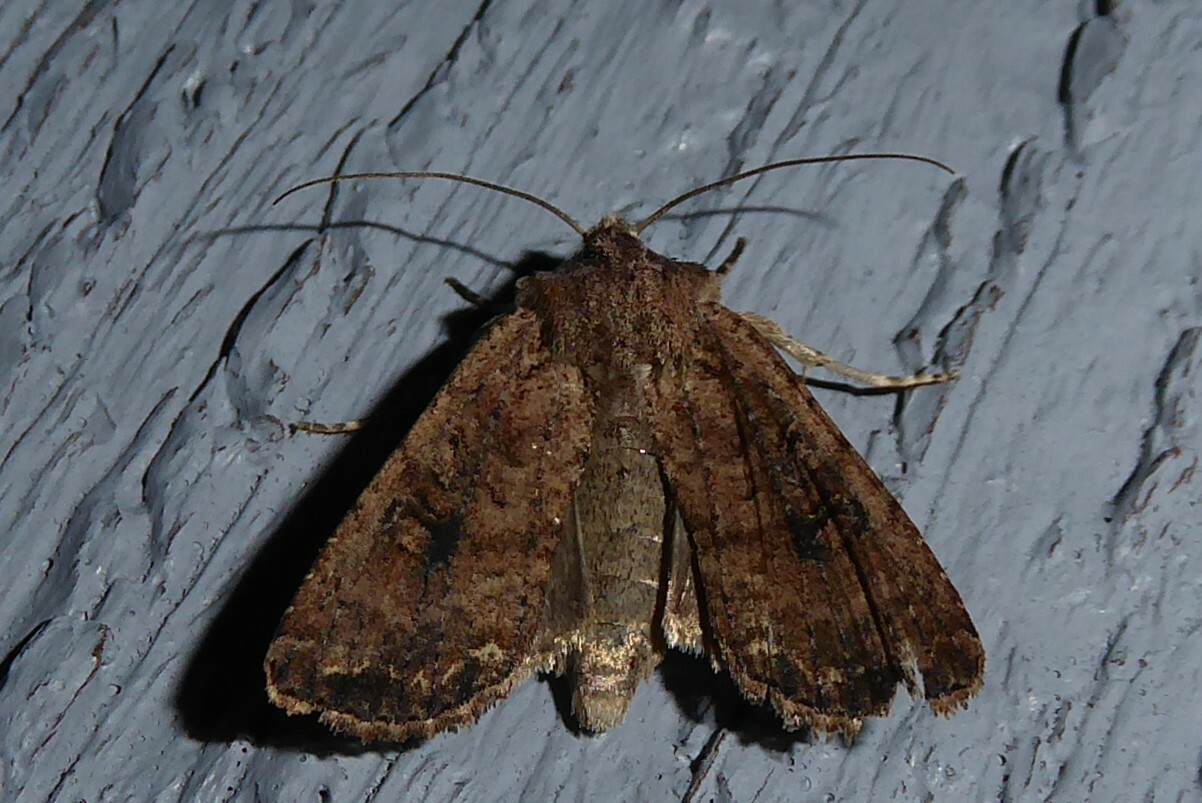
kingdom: Animalia
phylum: Arthropoda
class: Insecta
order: Lepidoptera
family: Noctuidae
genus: Ichneutica
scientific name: Ichneutica morosa
